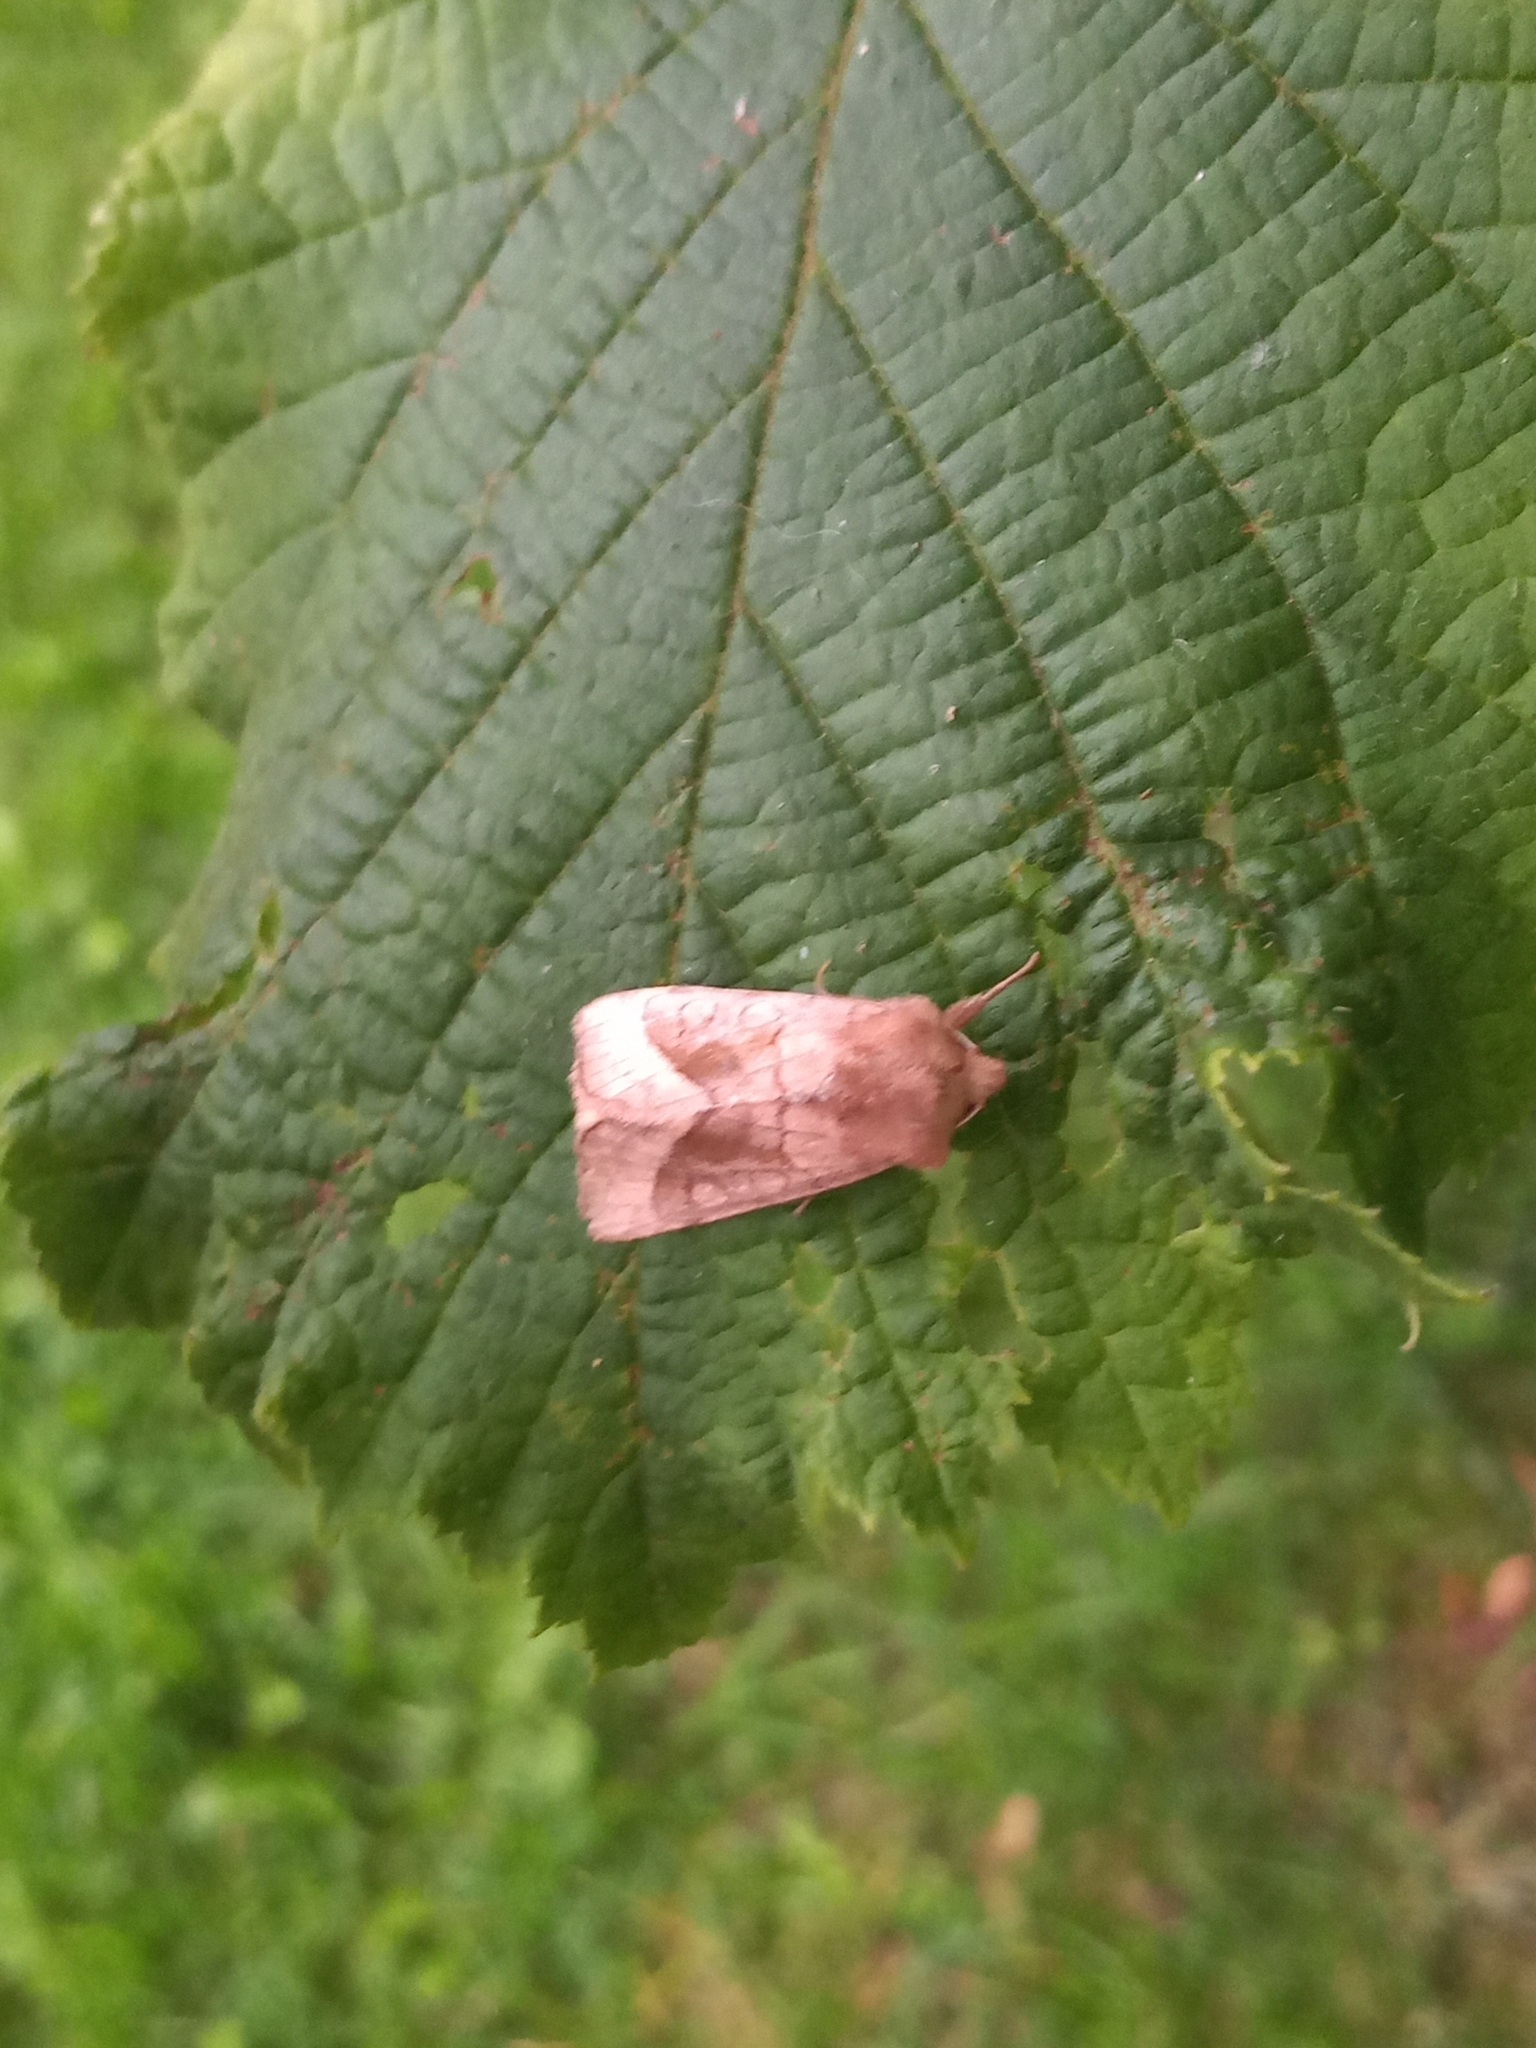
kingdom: Animalia
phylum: Arthropoda
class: Insecta
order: Lepidoptera
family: Noctuidae
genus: Hydraecia
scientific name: Hydraecia micacea
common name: Rosy rustic
